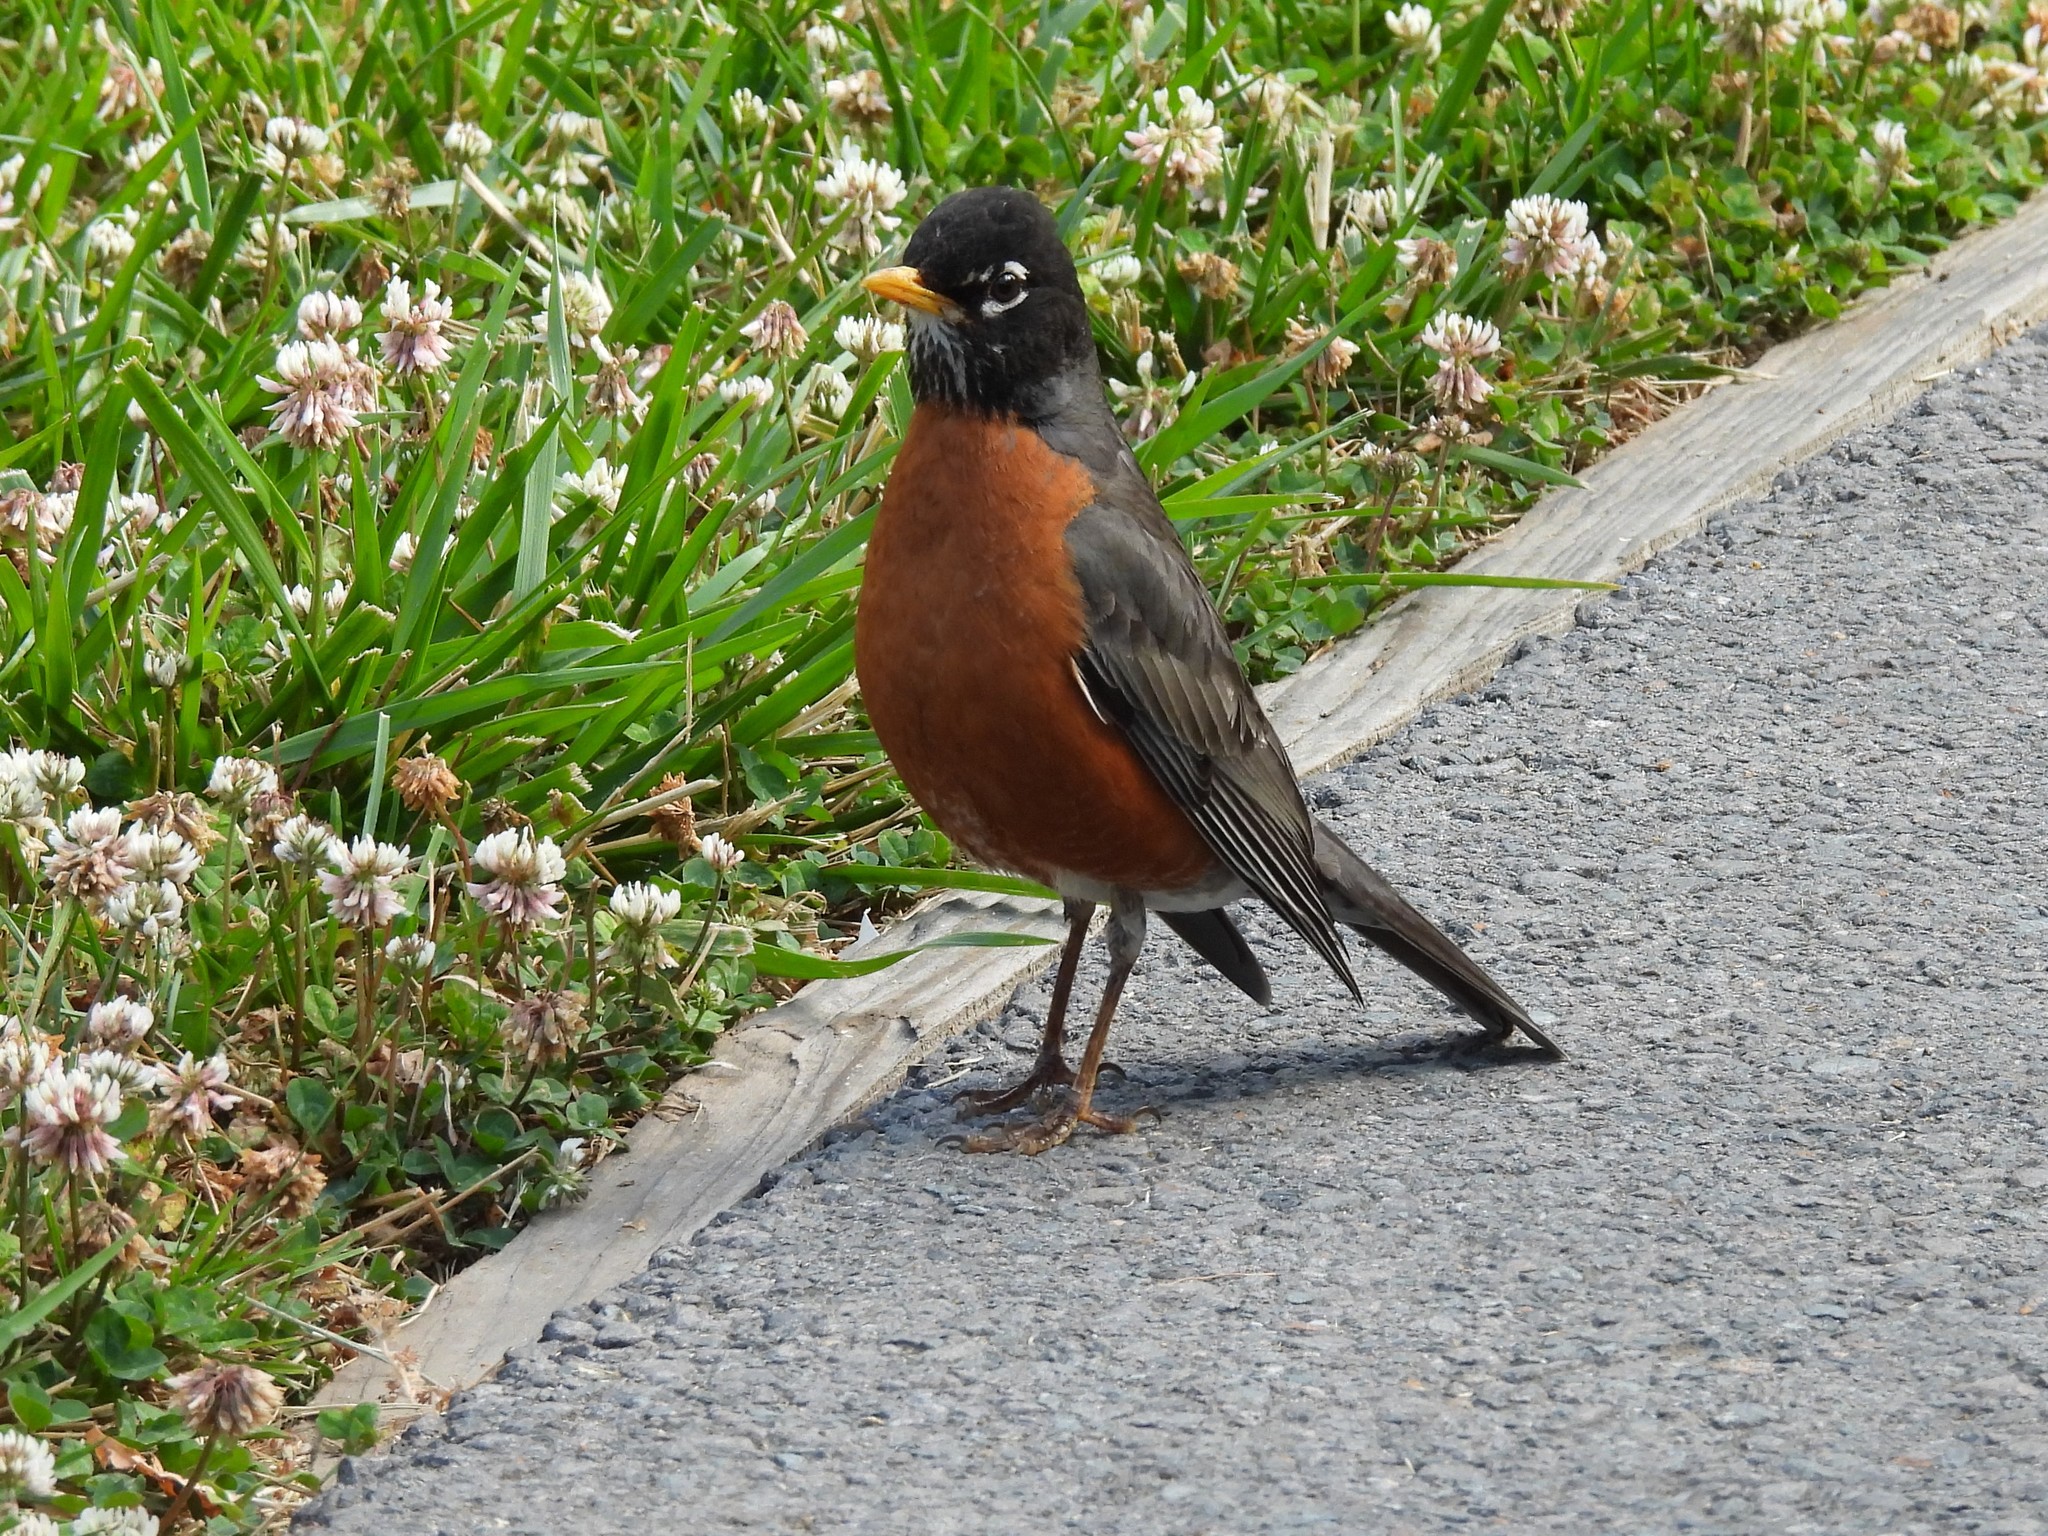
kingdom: Animalia
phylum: Chordata
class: Aves
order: Passeriformes
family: Turdidae
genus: Turdus
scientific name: Turdus migratorius
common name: American robin
